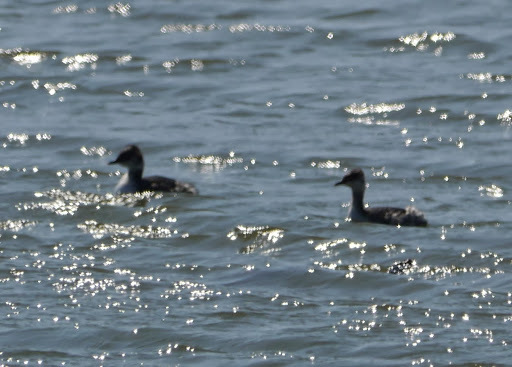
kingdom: Animalia
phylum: Chordata
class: Aves
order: Podicipediformes
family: Podicipedidae
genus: Podiceps
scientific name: Podiceps auritus
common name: Horned grebe
